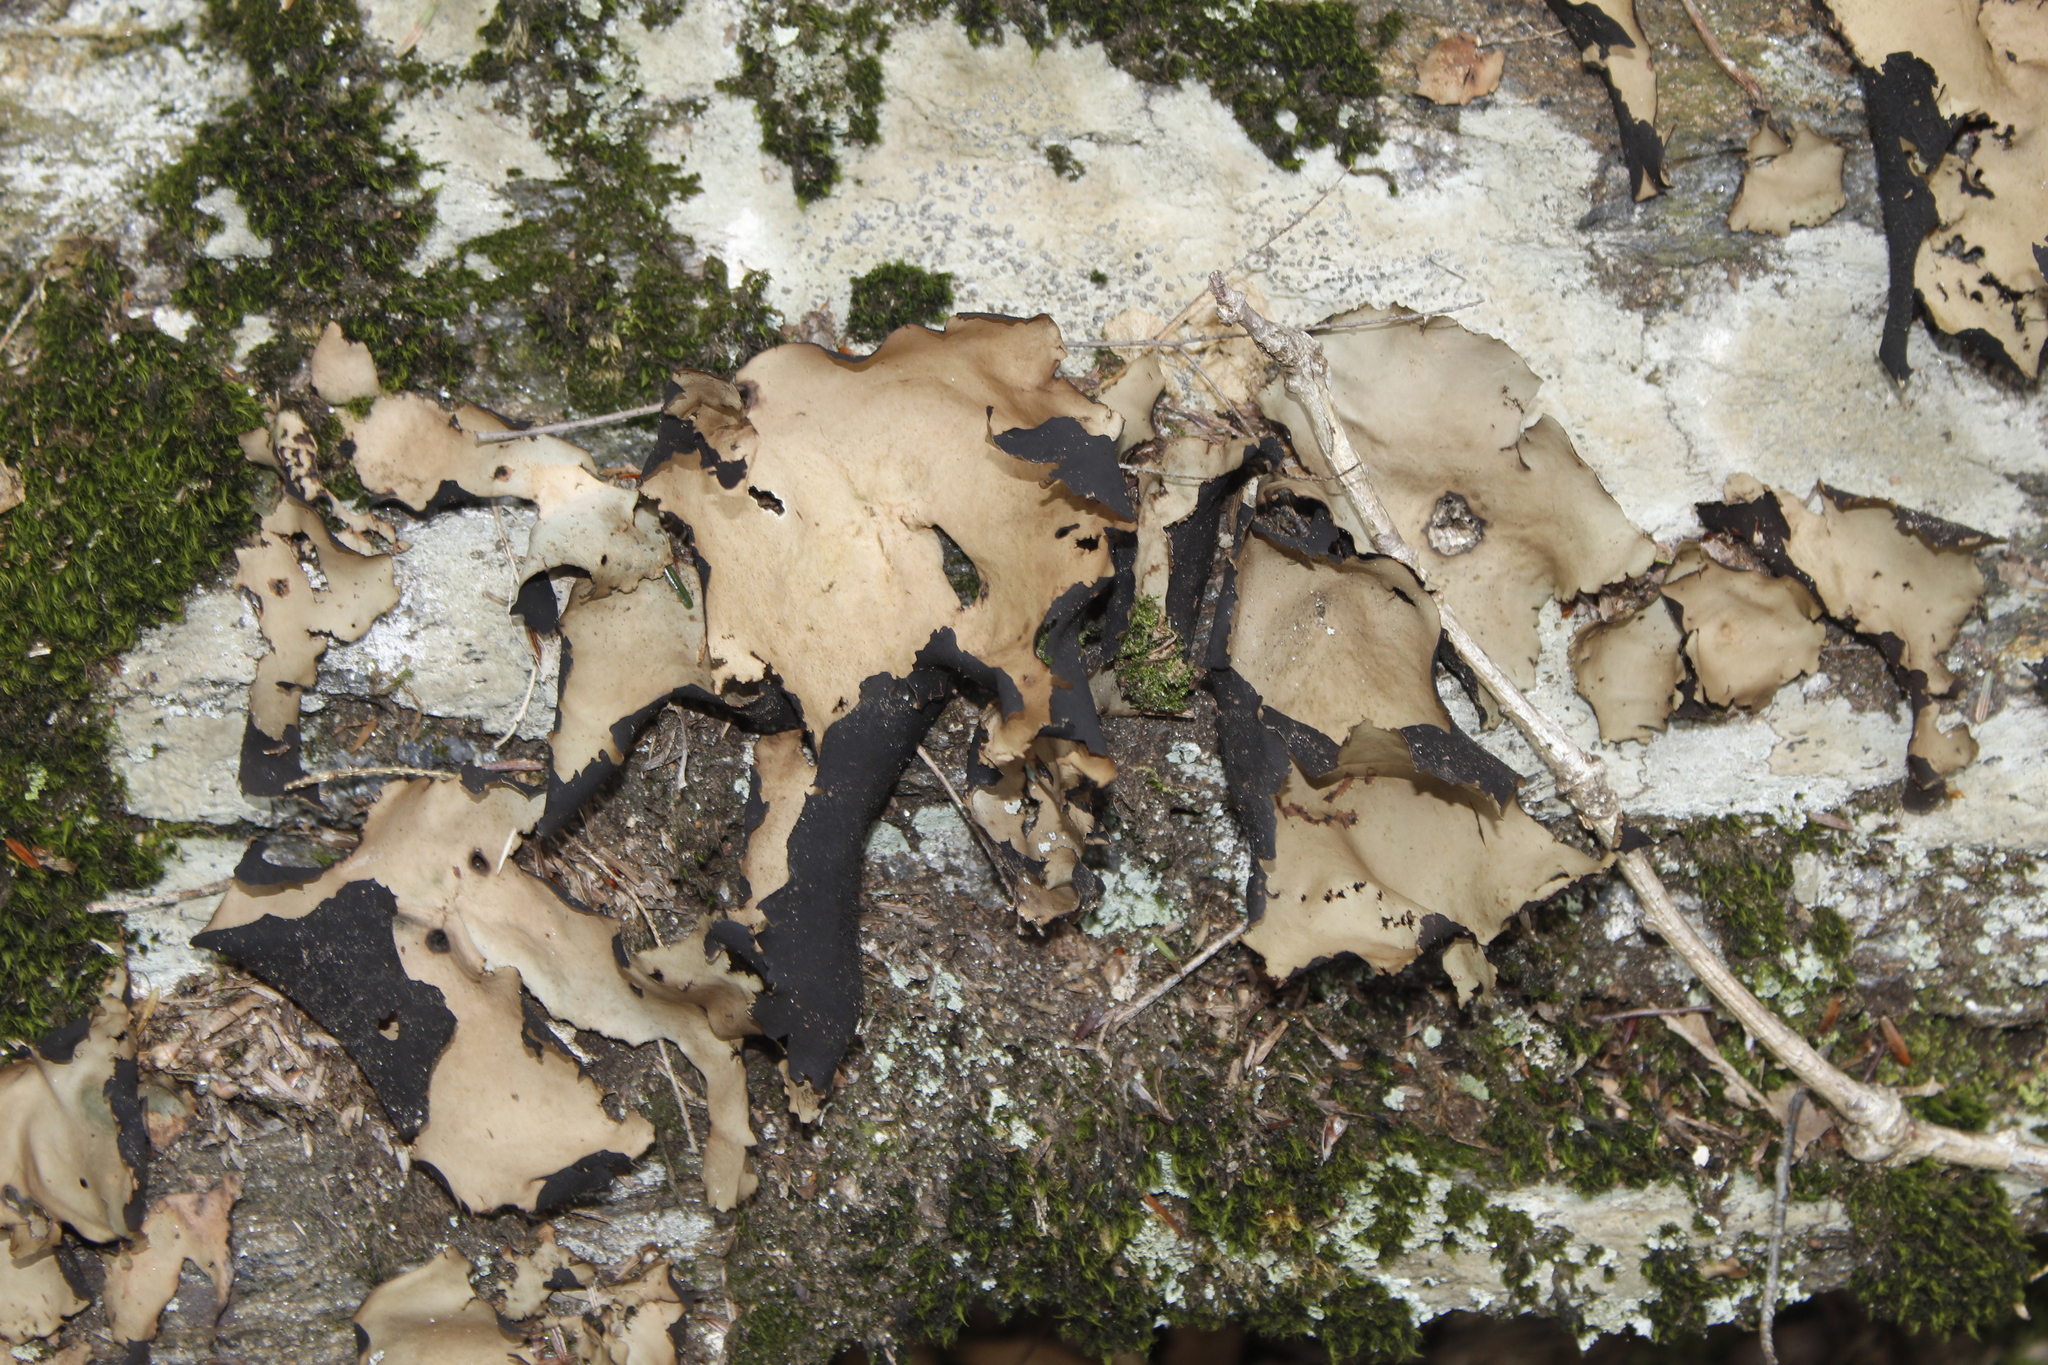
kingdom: Fungi
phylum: Ascomycota
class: Lecanoromycetes
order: Umbilicariales
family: Umbilicariaceae
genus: Umbilicaria
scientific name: Umbilicaria mammulata
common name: Smooth rock tripe
